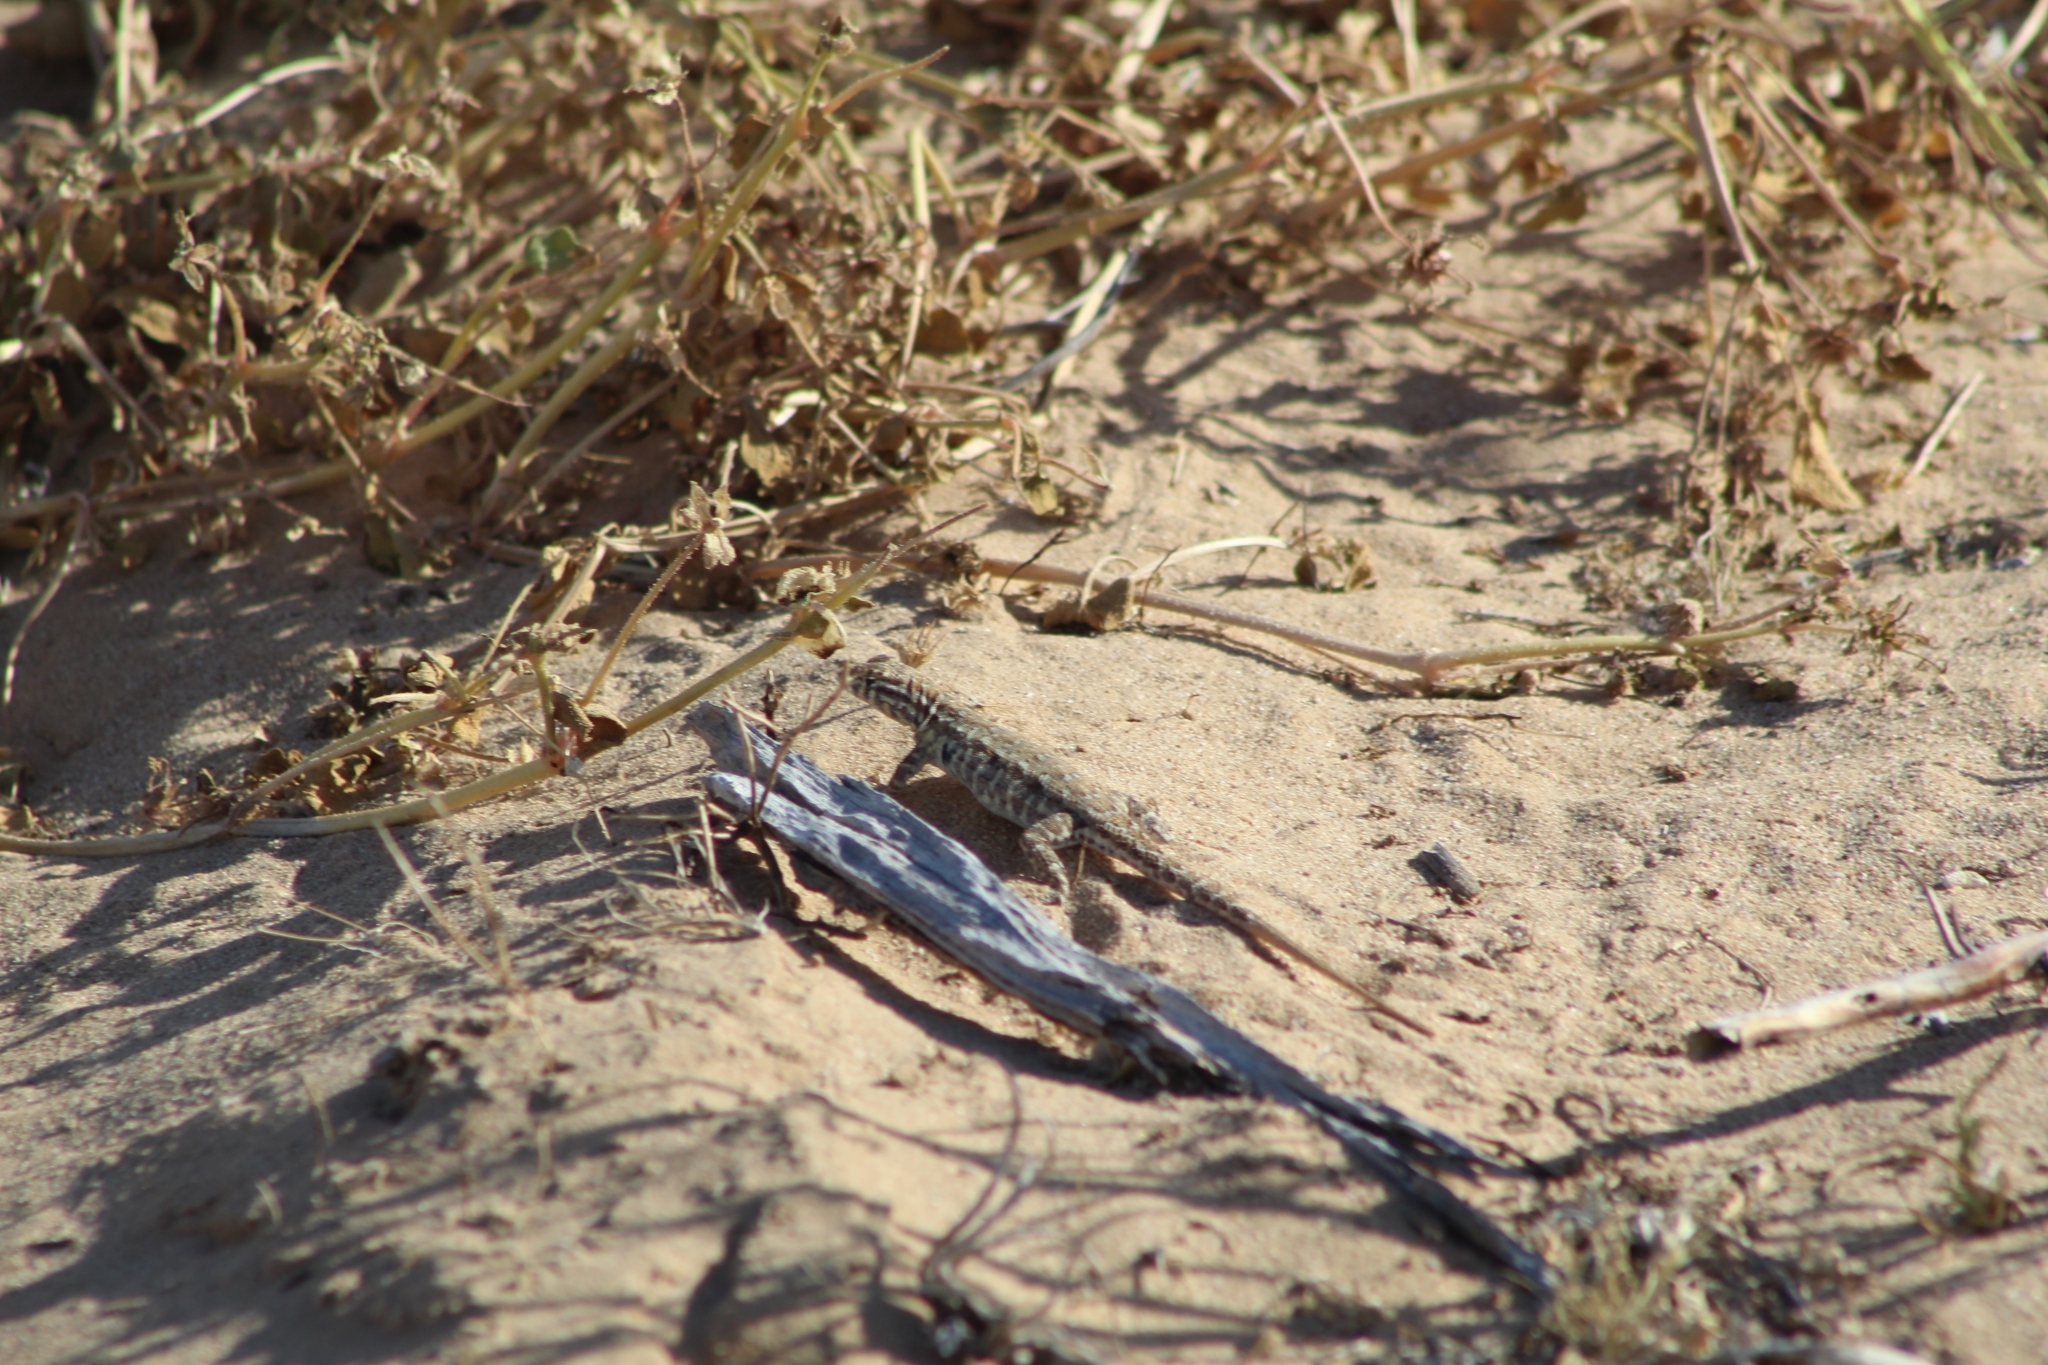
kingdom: Animalia
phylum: Chordata
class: Squamata
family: Phrynosomatidae
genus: Uta
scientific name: Uta stansburiana
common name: Side-blotched lizard
